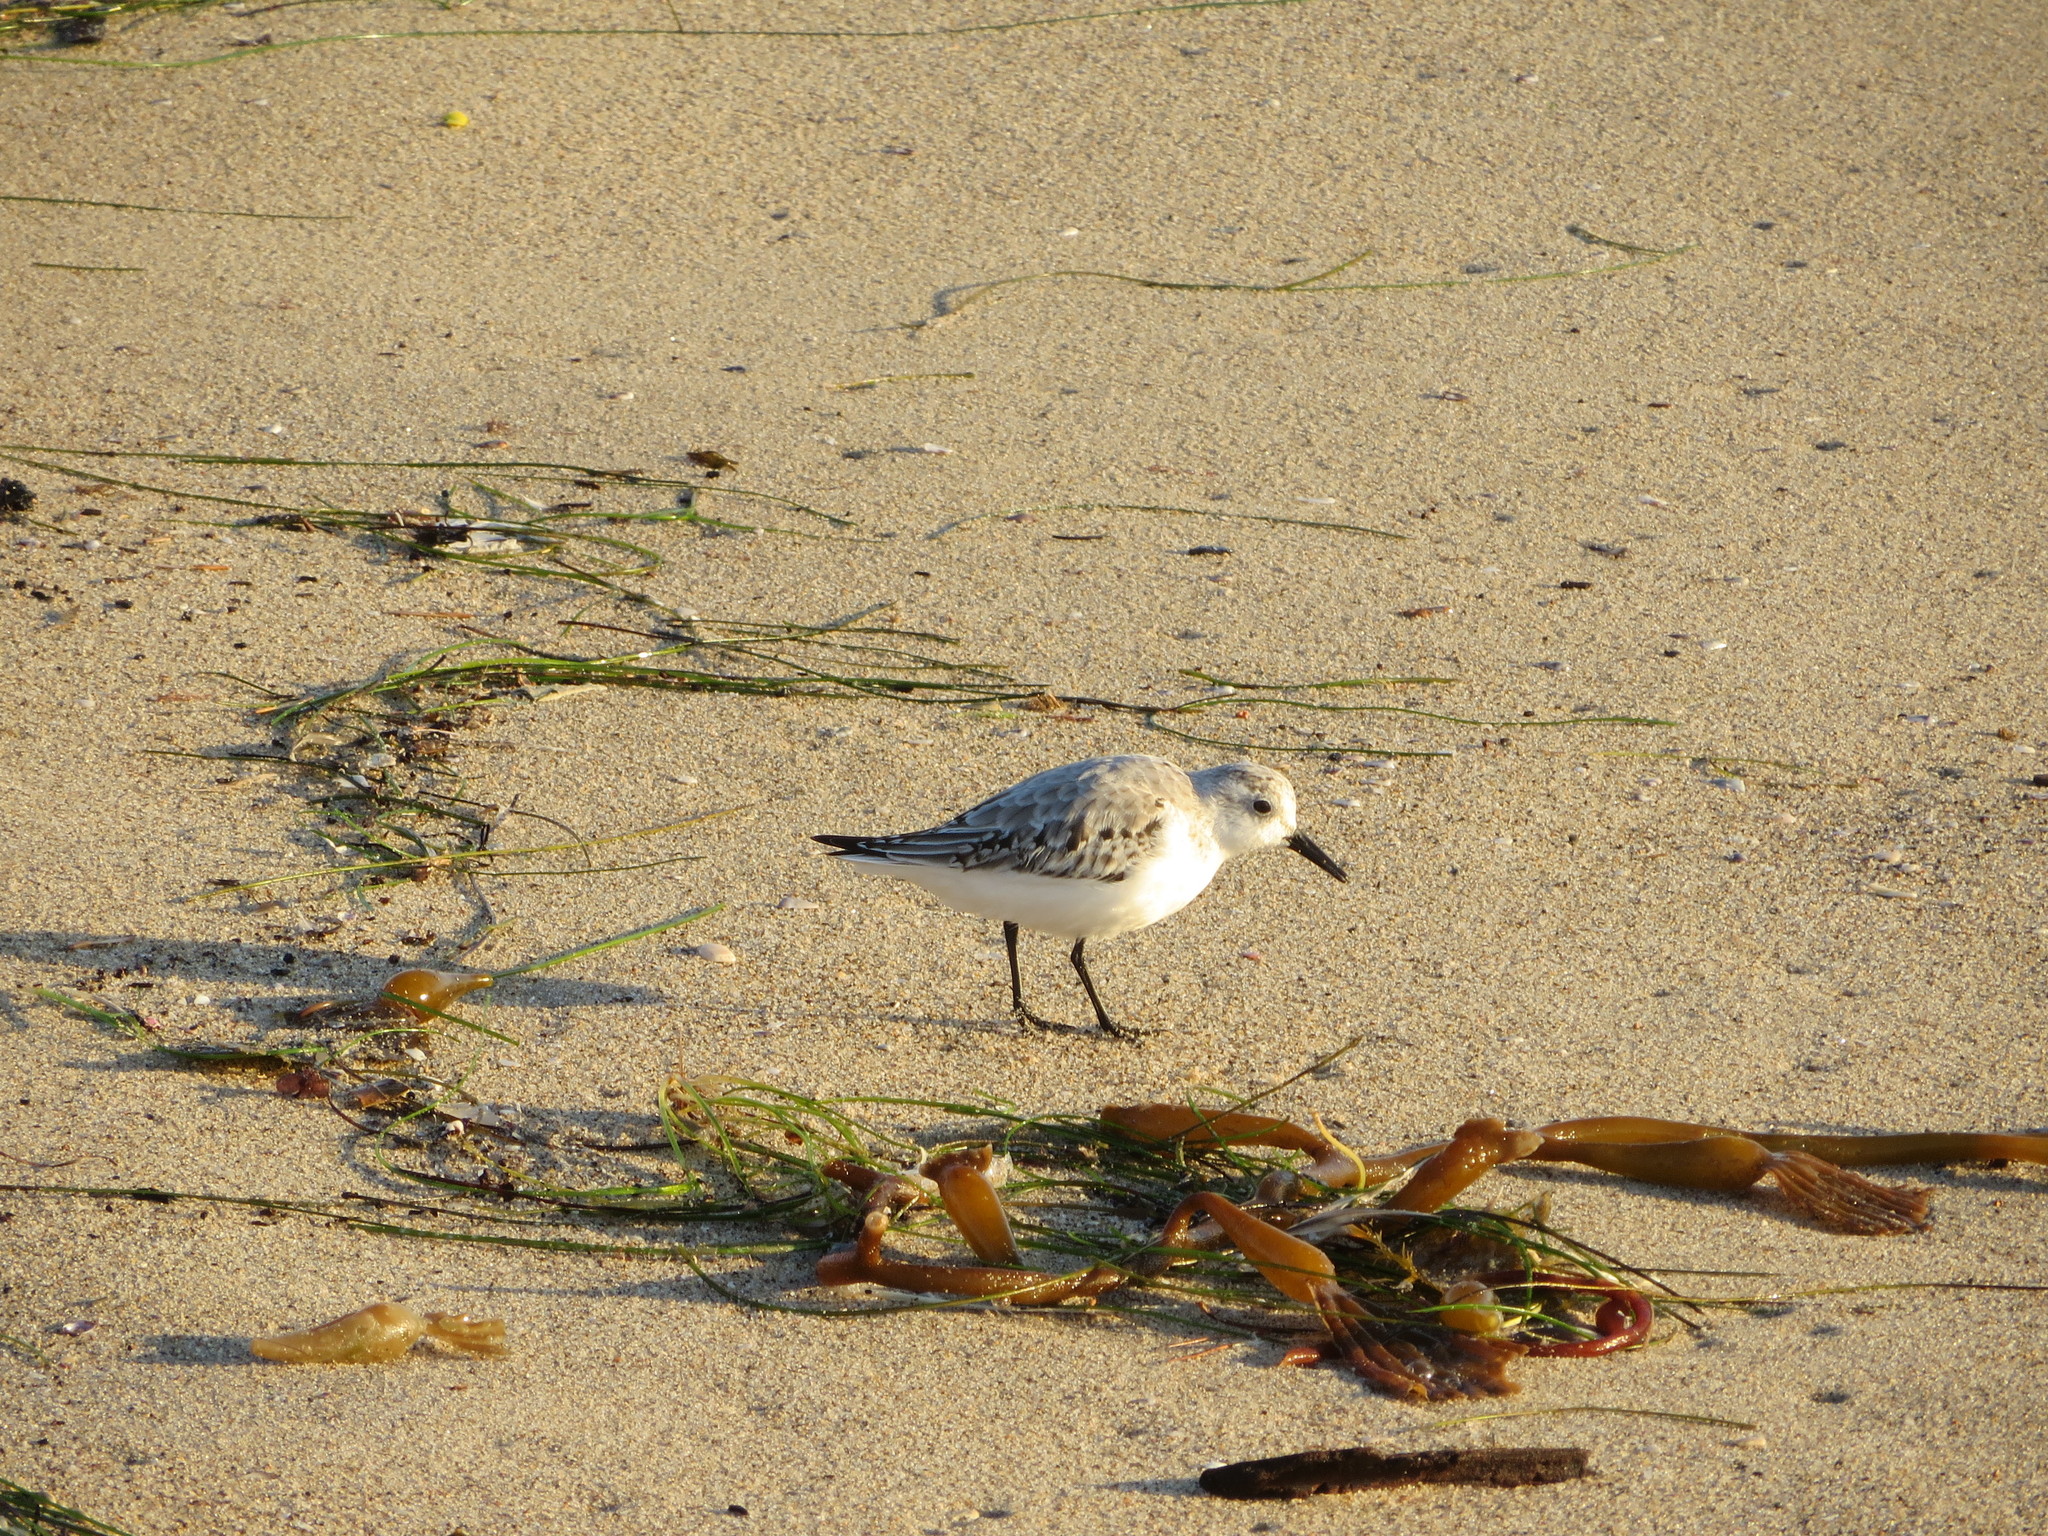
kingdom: Animalia
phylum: Chordata
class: Aves
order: Charadriiformes
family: Scolopacidae
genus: Calidris
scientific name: Calidris alba
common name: Sanderling
